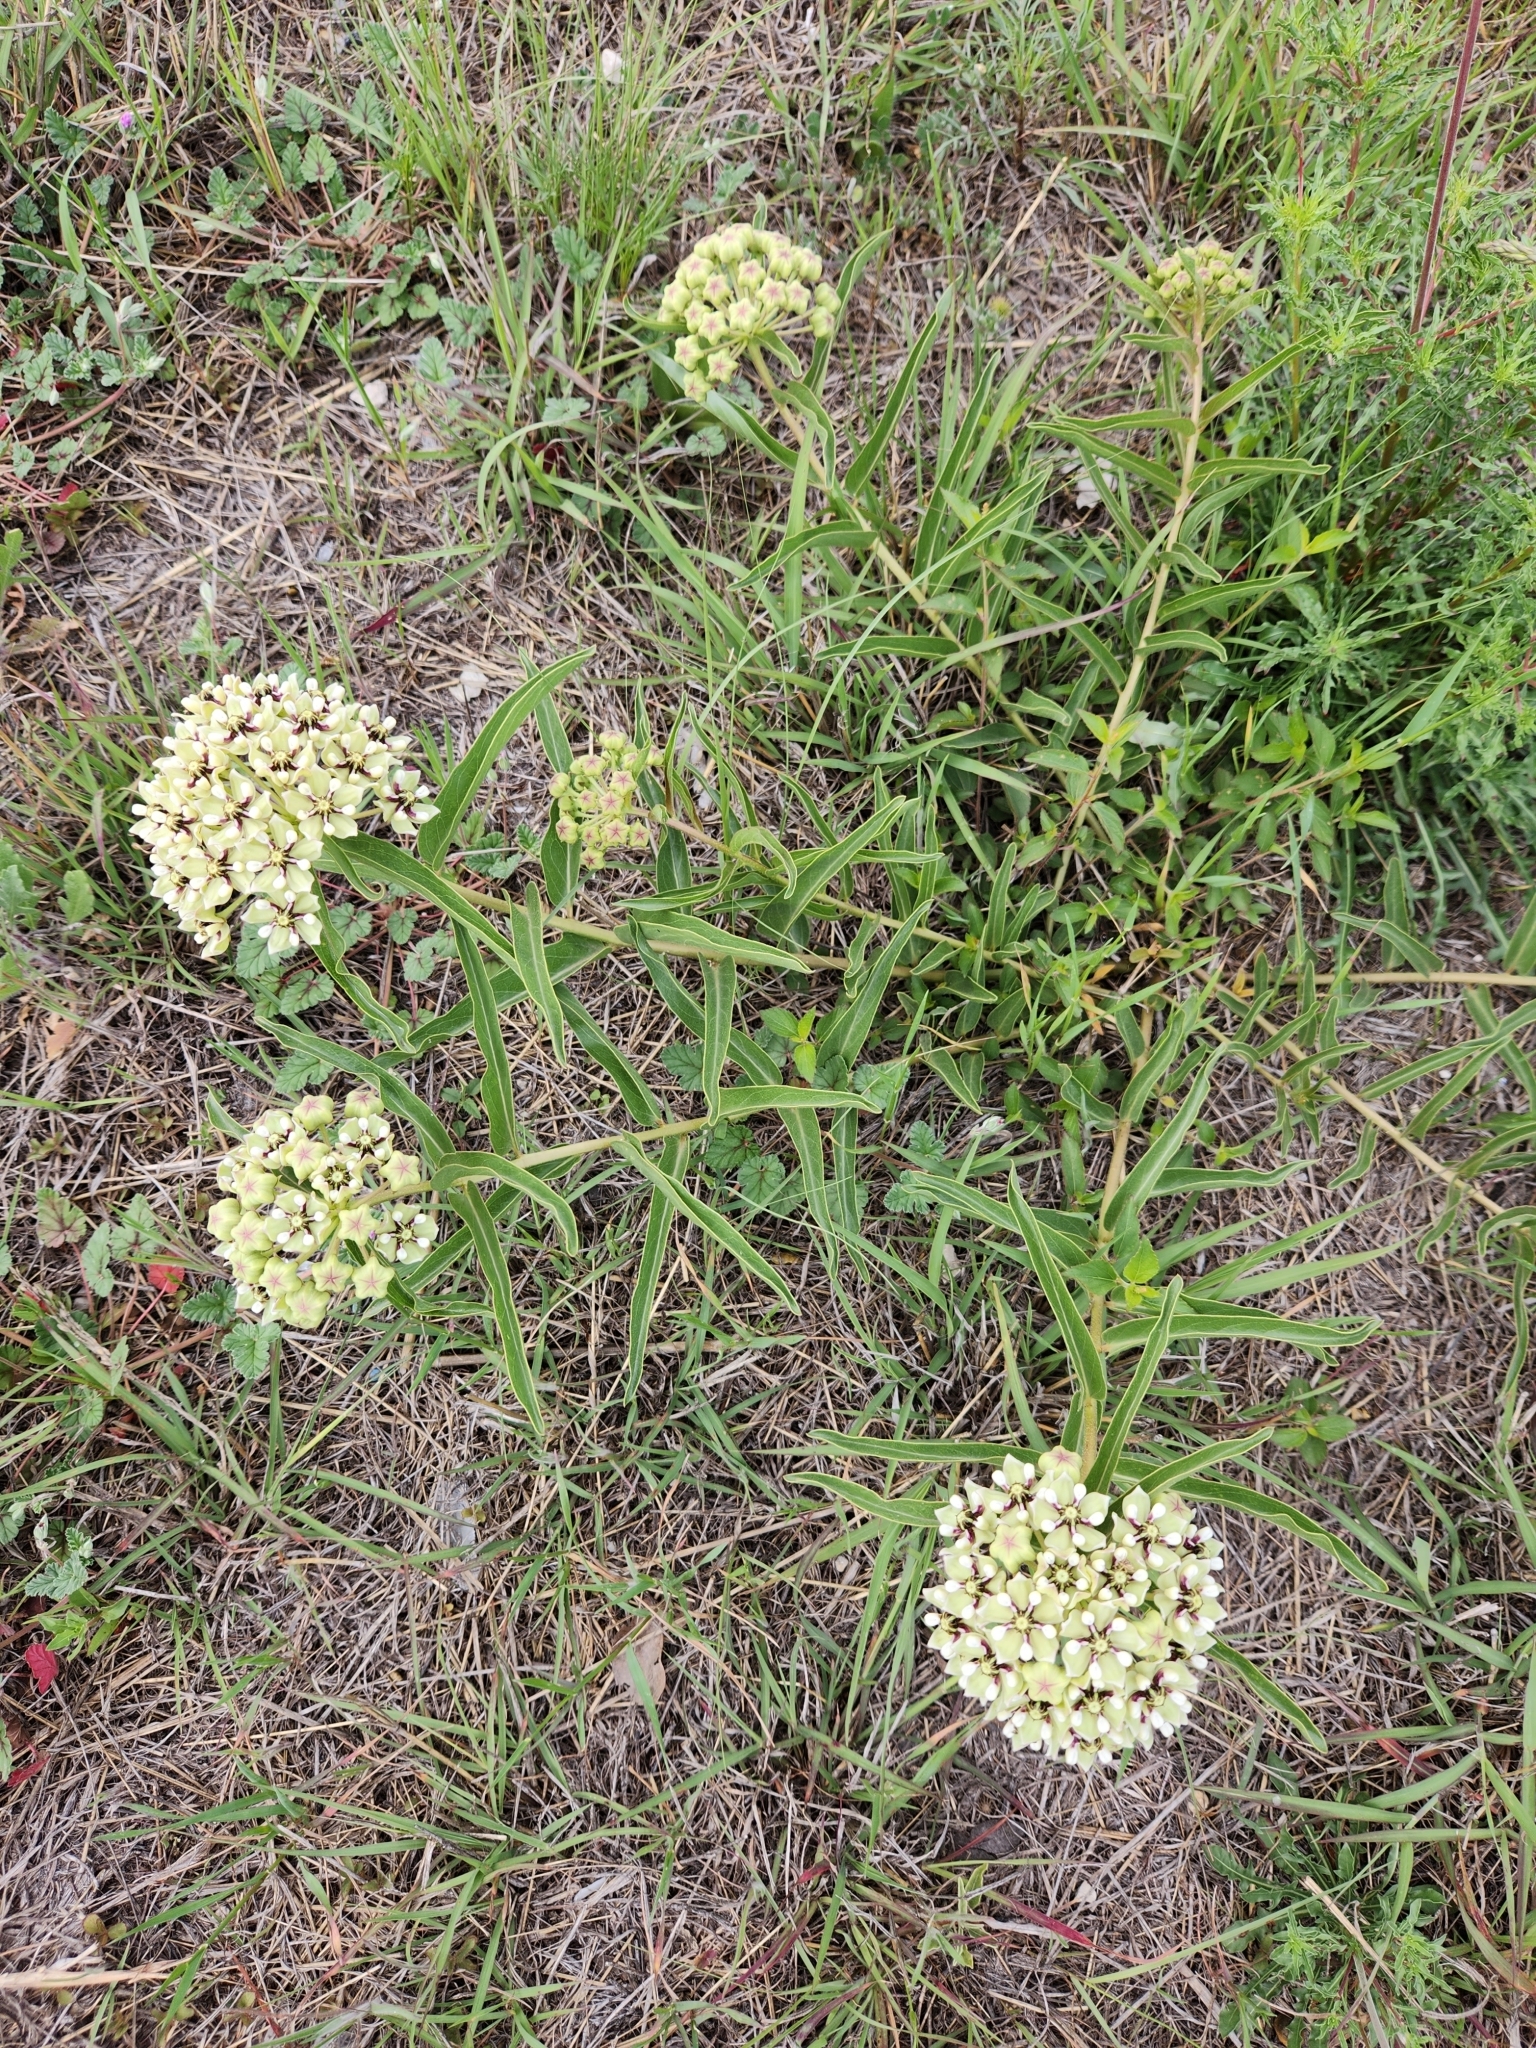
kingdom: Plantae
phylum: Tracheophyta
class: Magnoliopsida
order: Gentianales
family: Apocynaceae
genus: Asclepias
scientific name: Asclepias asperula
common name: Antelope horns
